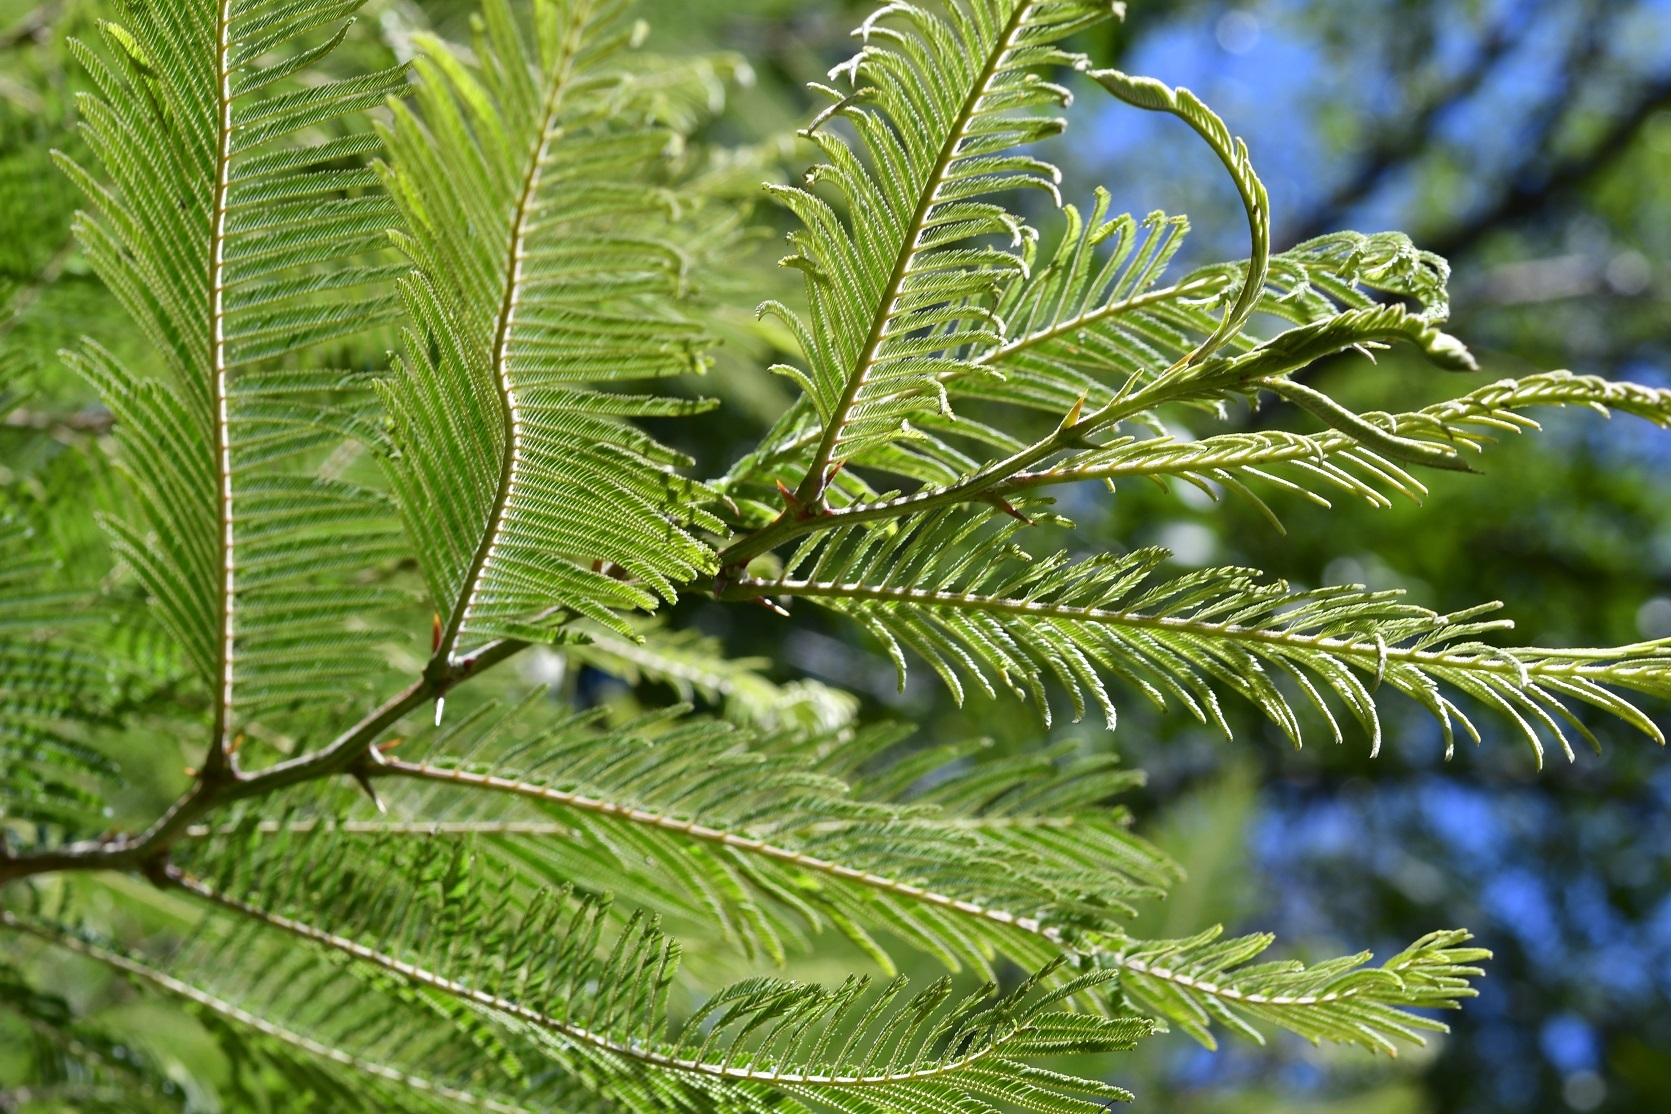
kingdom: Plantae
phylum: Tracheophyta
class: Magnoliopsida
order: Fabales
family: Fabaceae
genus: Vachellia
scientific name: Vachellia pennatula
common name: Fern-leaf acacia
